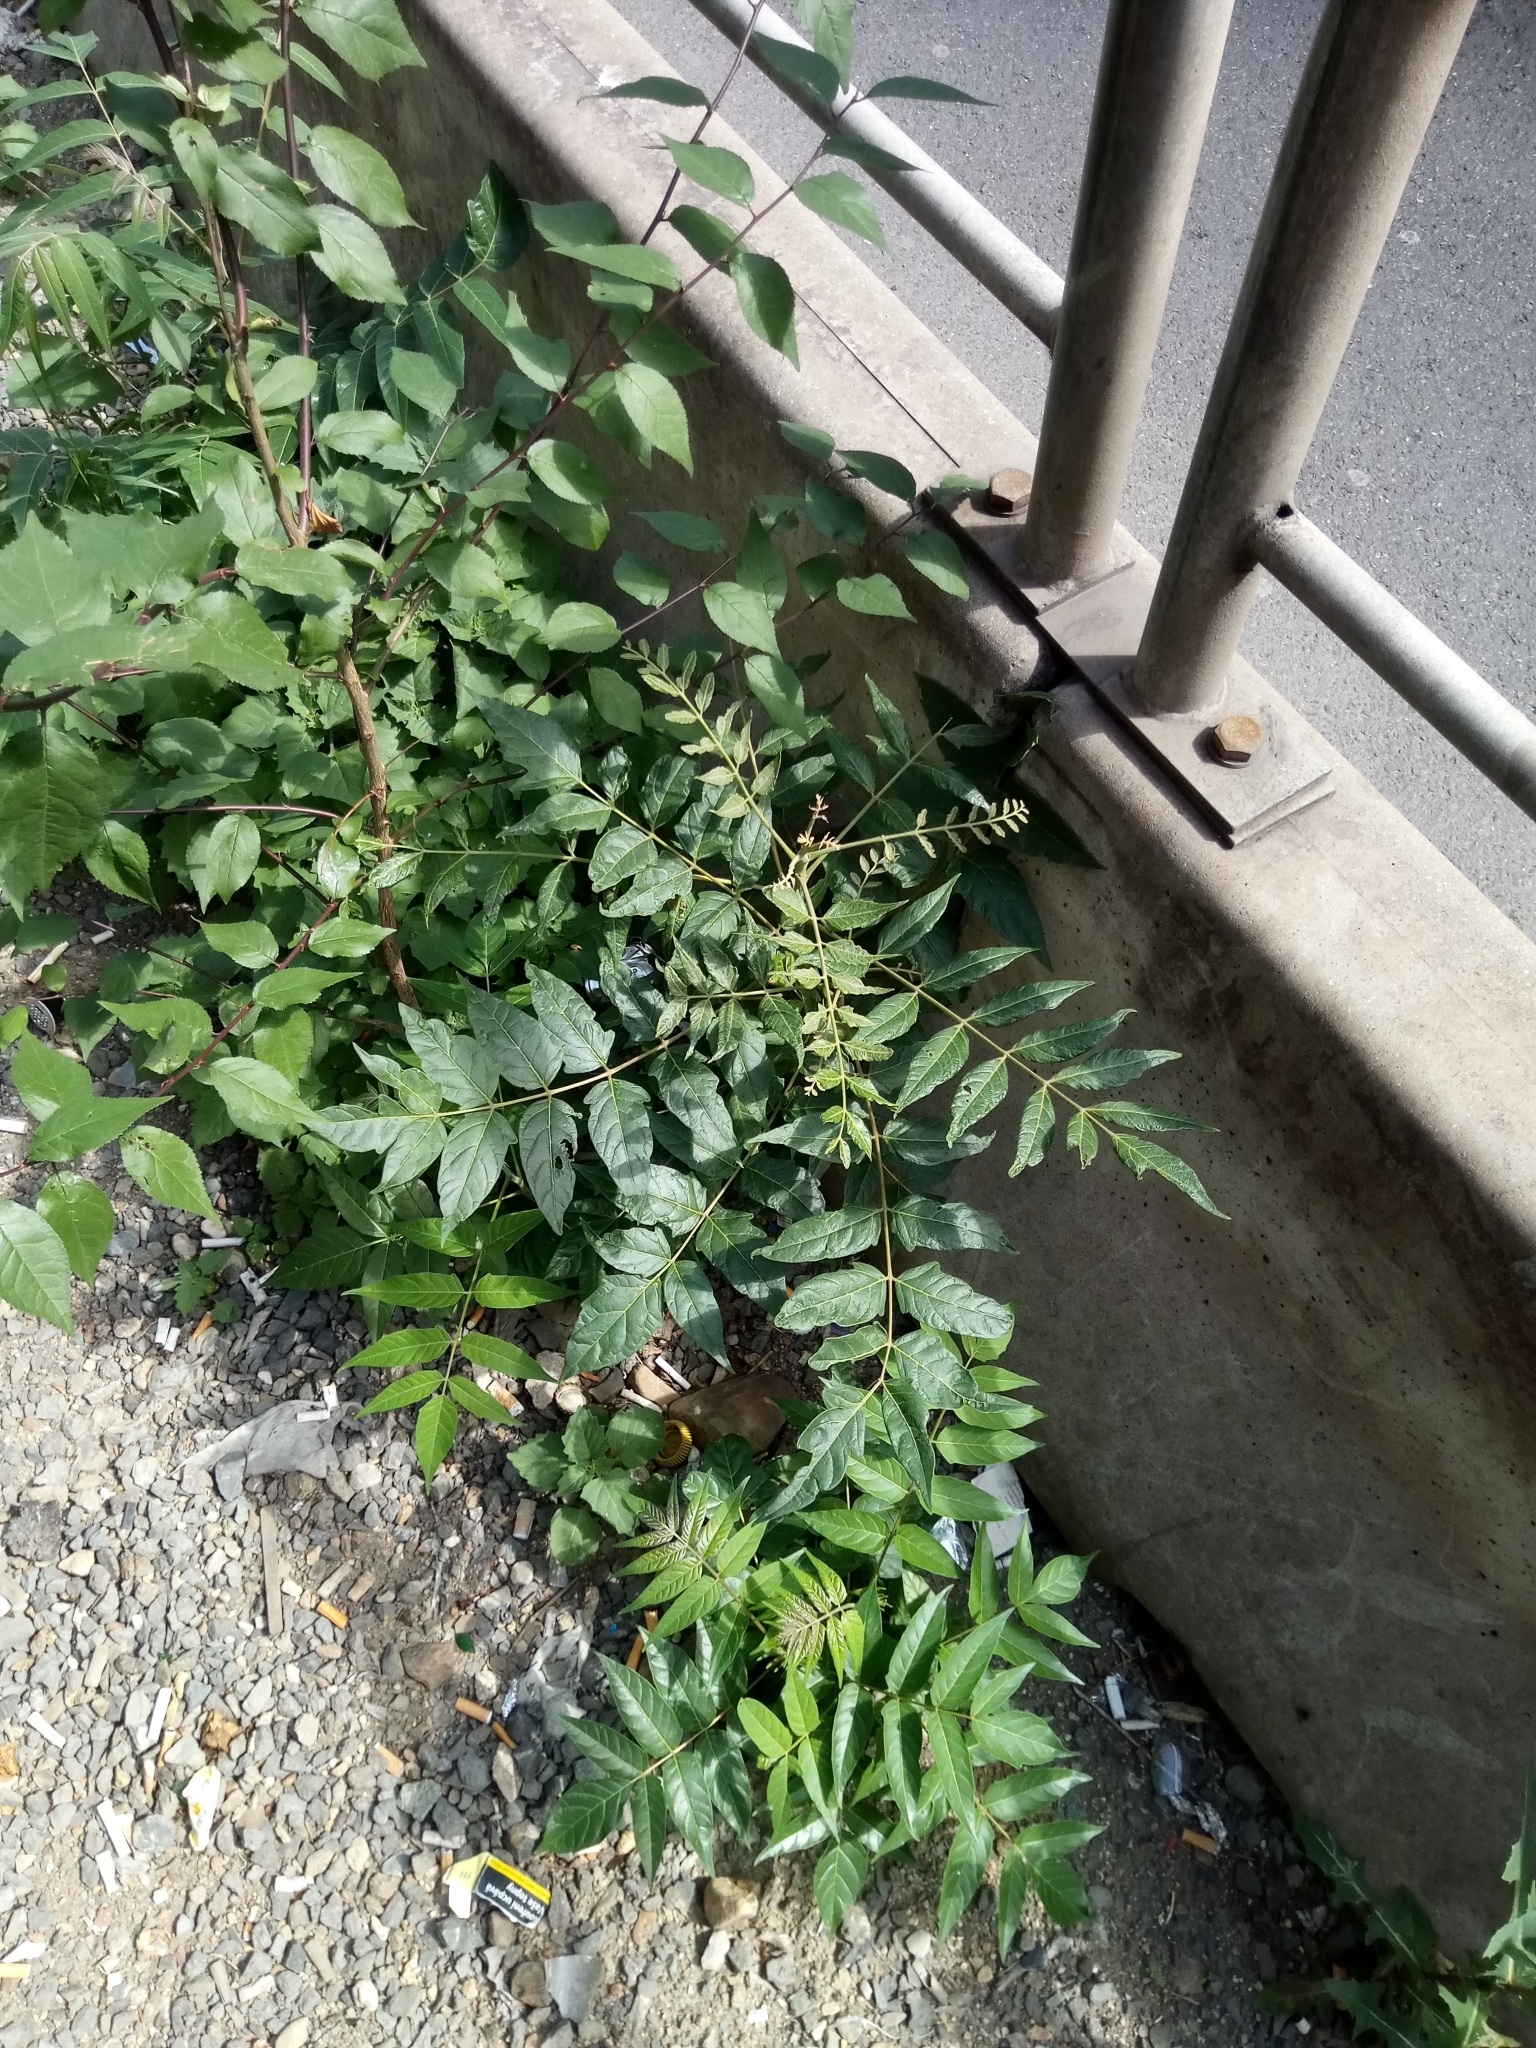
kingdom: Plantae
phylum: Tracheophyta
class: Magnoliopsida
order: Sapindales
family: Simaroubaceae
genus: Ailanthus
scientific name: Ailanthus altissima
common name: Tree-of-heaven
